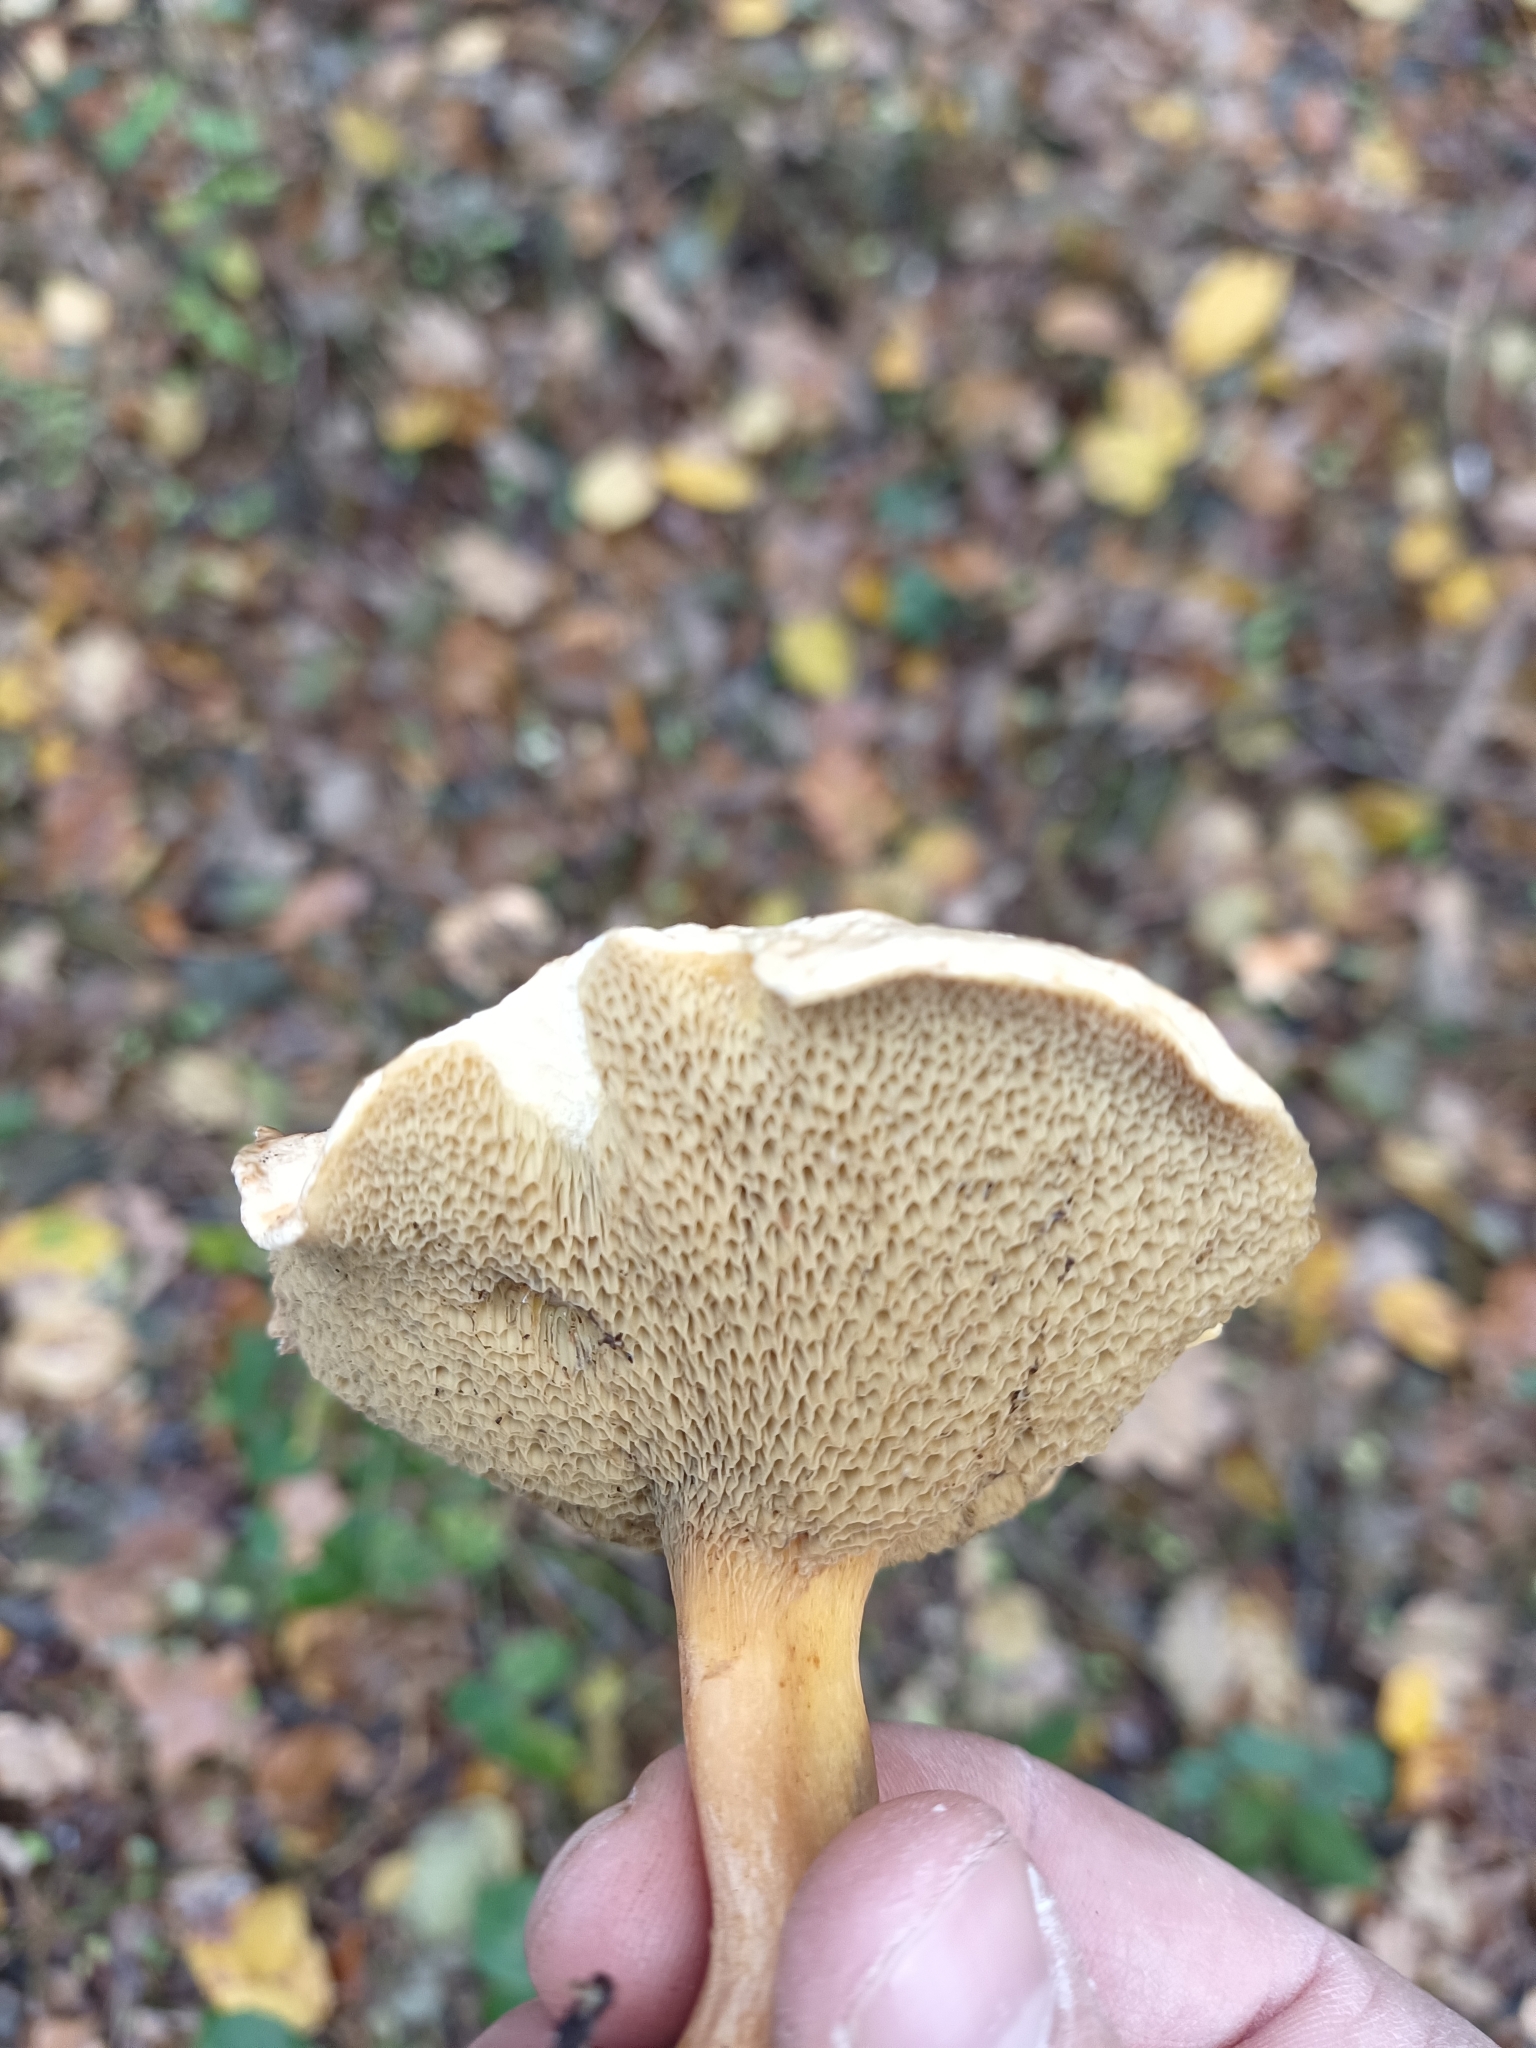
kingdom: Fungi
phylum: Basidiomycota
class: Agaricomycetes
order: Boletales
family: Suillaceae
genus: Suillus
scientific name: Suillus bovinus
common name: Bovine bolete
